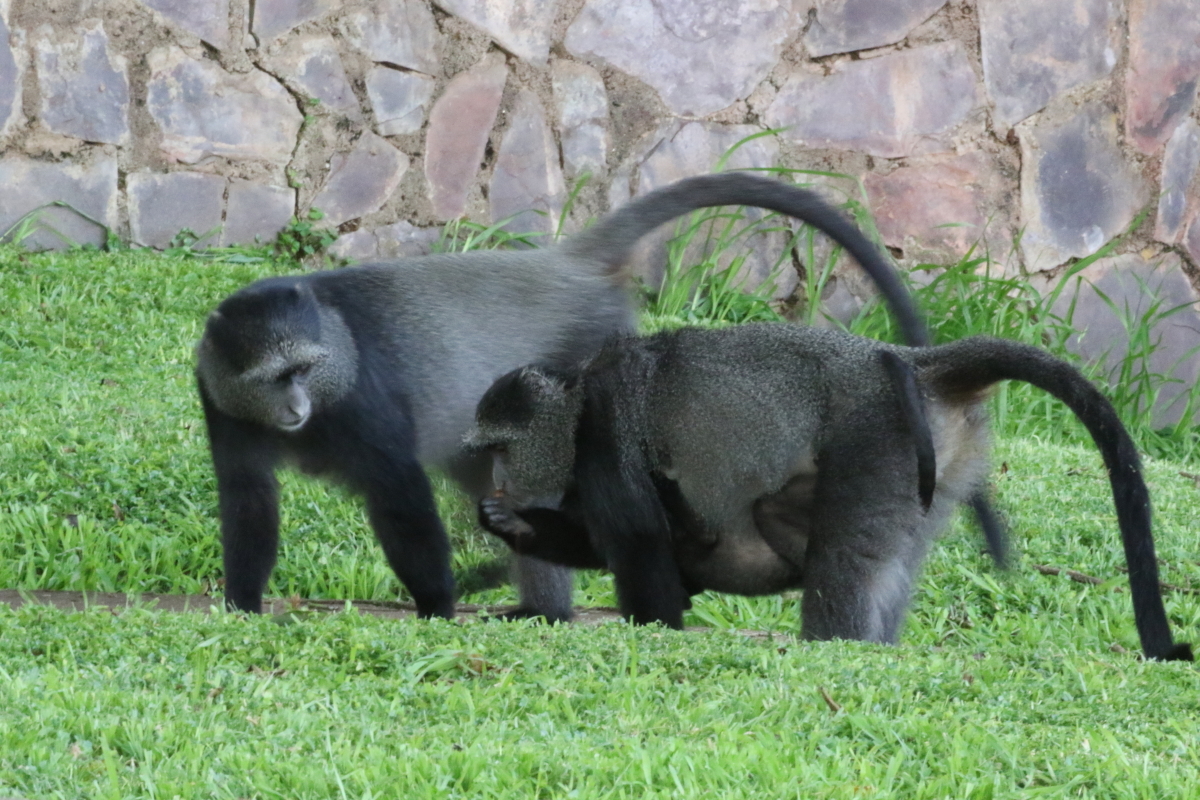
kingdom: Animalia
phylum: Chordata
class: Mammalia
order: Primates
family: Cercopithecidae
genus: Cercopithecus
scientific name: Cercopithecus mitis
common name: Blue monkey
